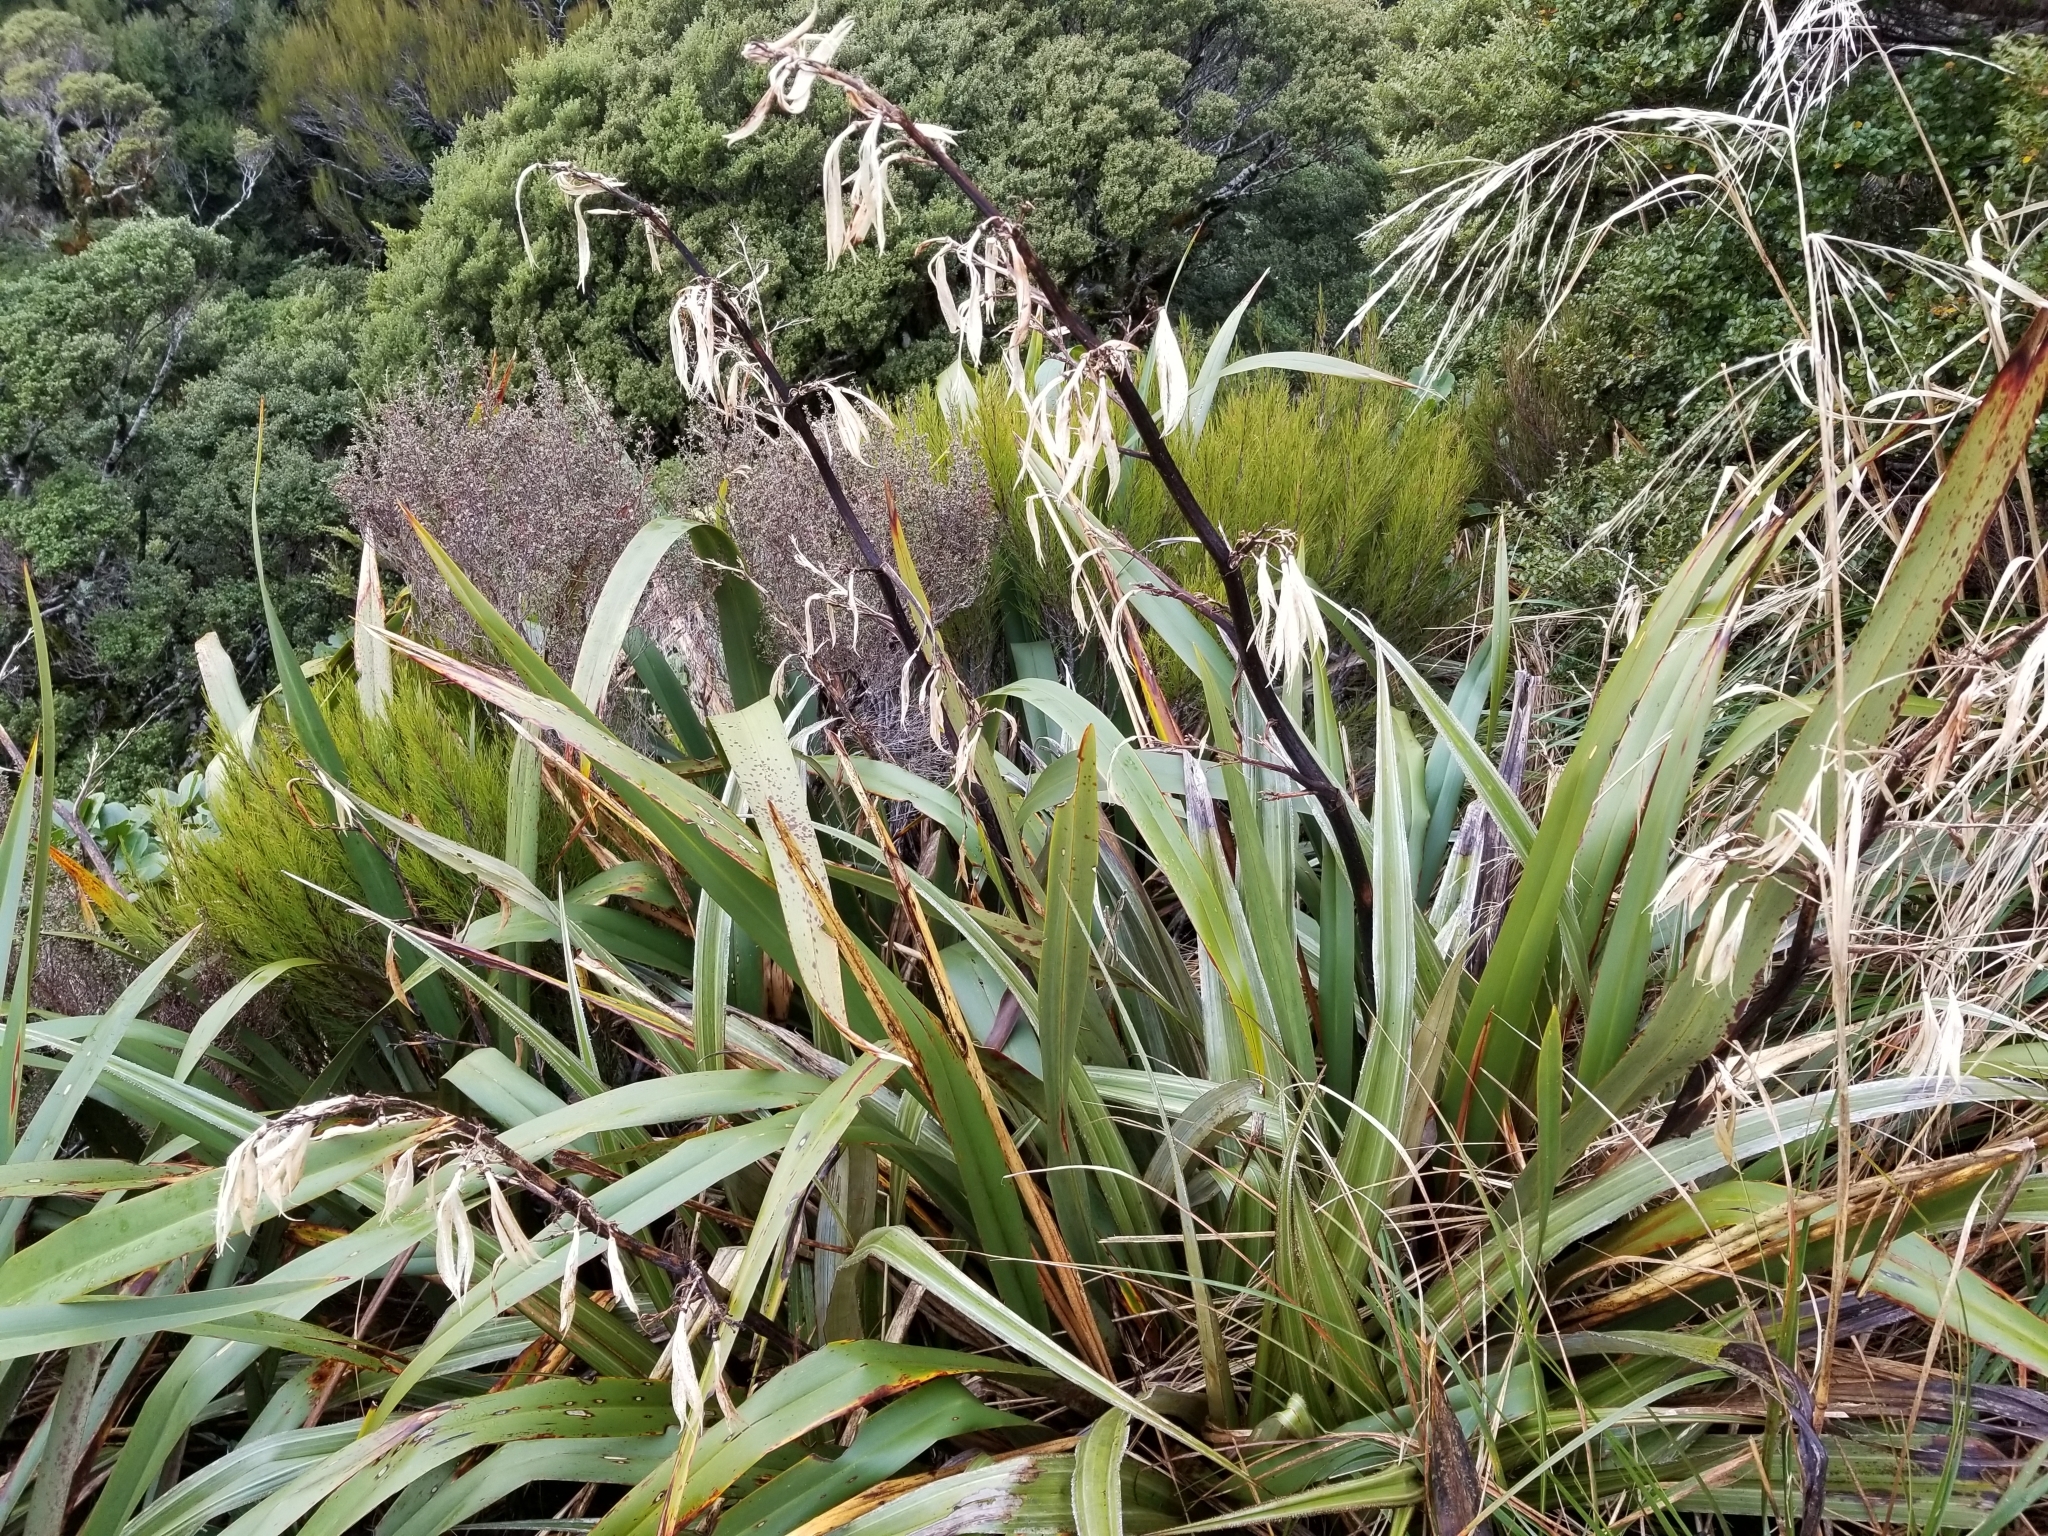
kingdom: Plantae
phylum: Tracheophyta
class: Liliopsida
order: Asparagales
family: Asphodelaceae
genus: Phormium
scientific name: Phormium colensoi
